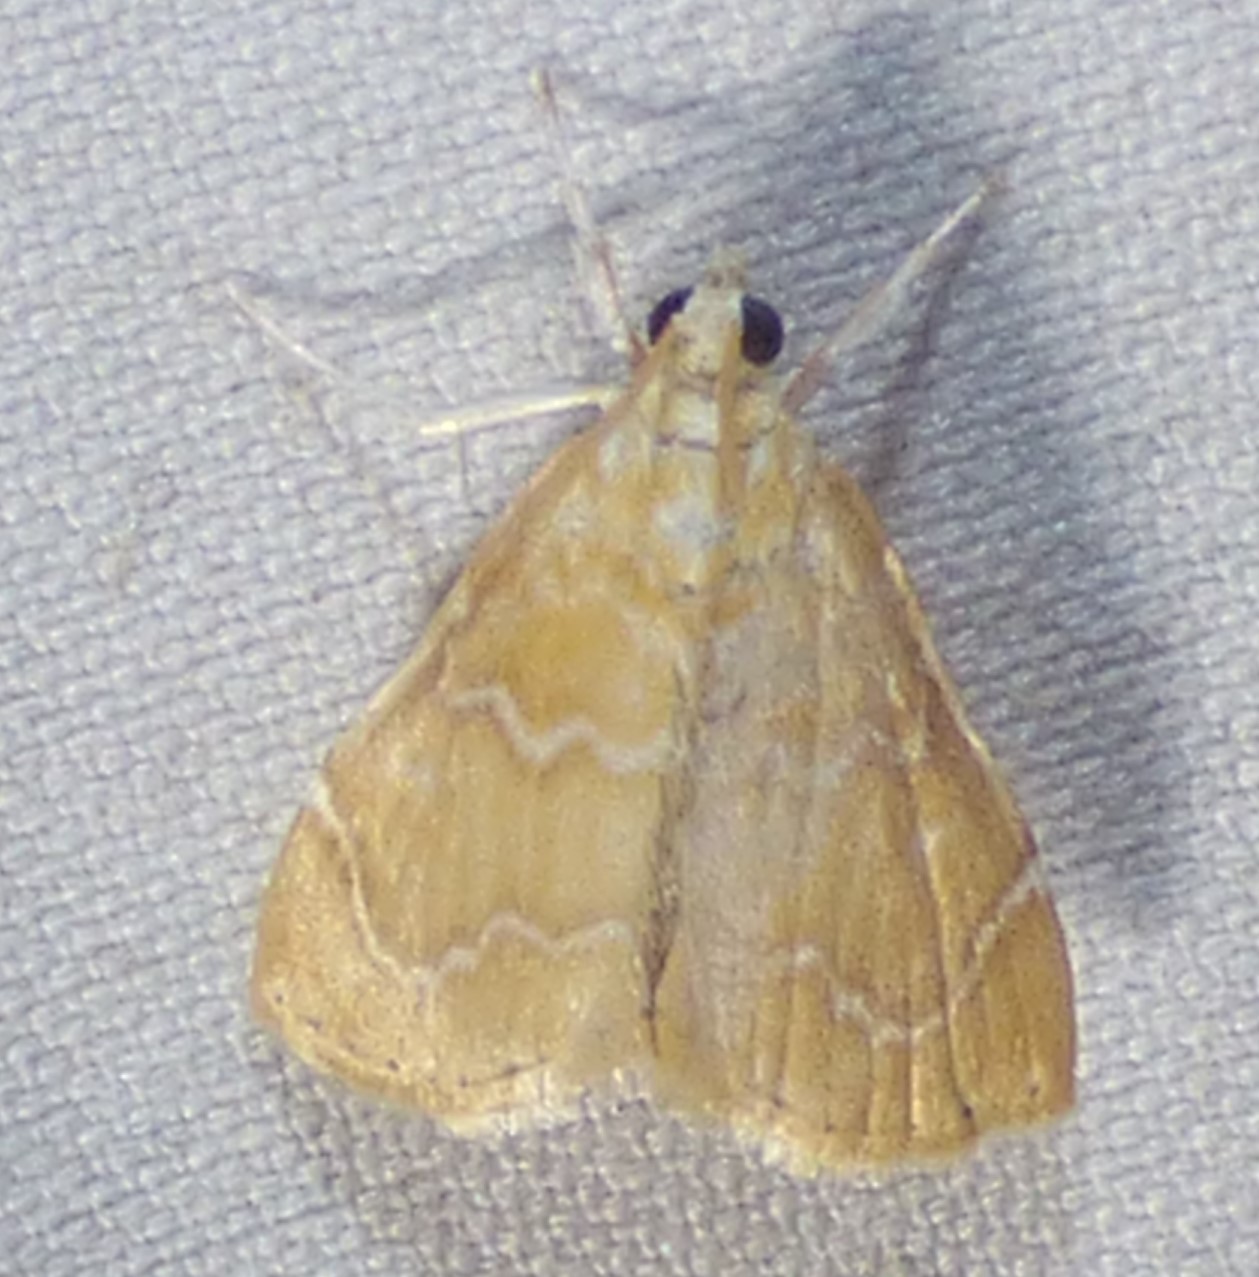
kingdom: Animalia
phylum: Arthropoda
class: Insecta
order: Lepidoptera
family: Crambidae
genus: Glaphyria
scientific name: Glaphyria sesquistrialis
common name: White-roped glaphyria
